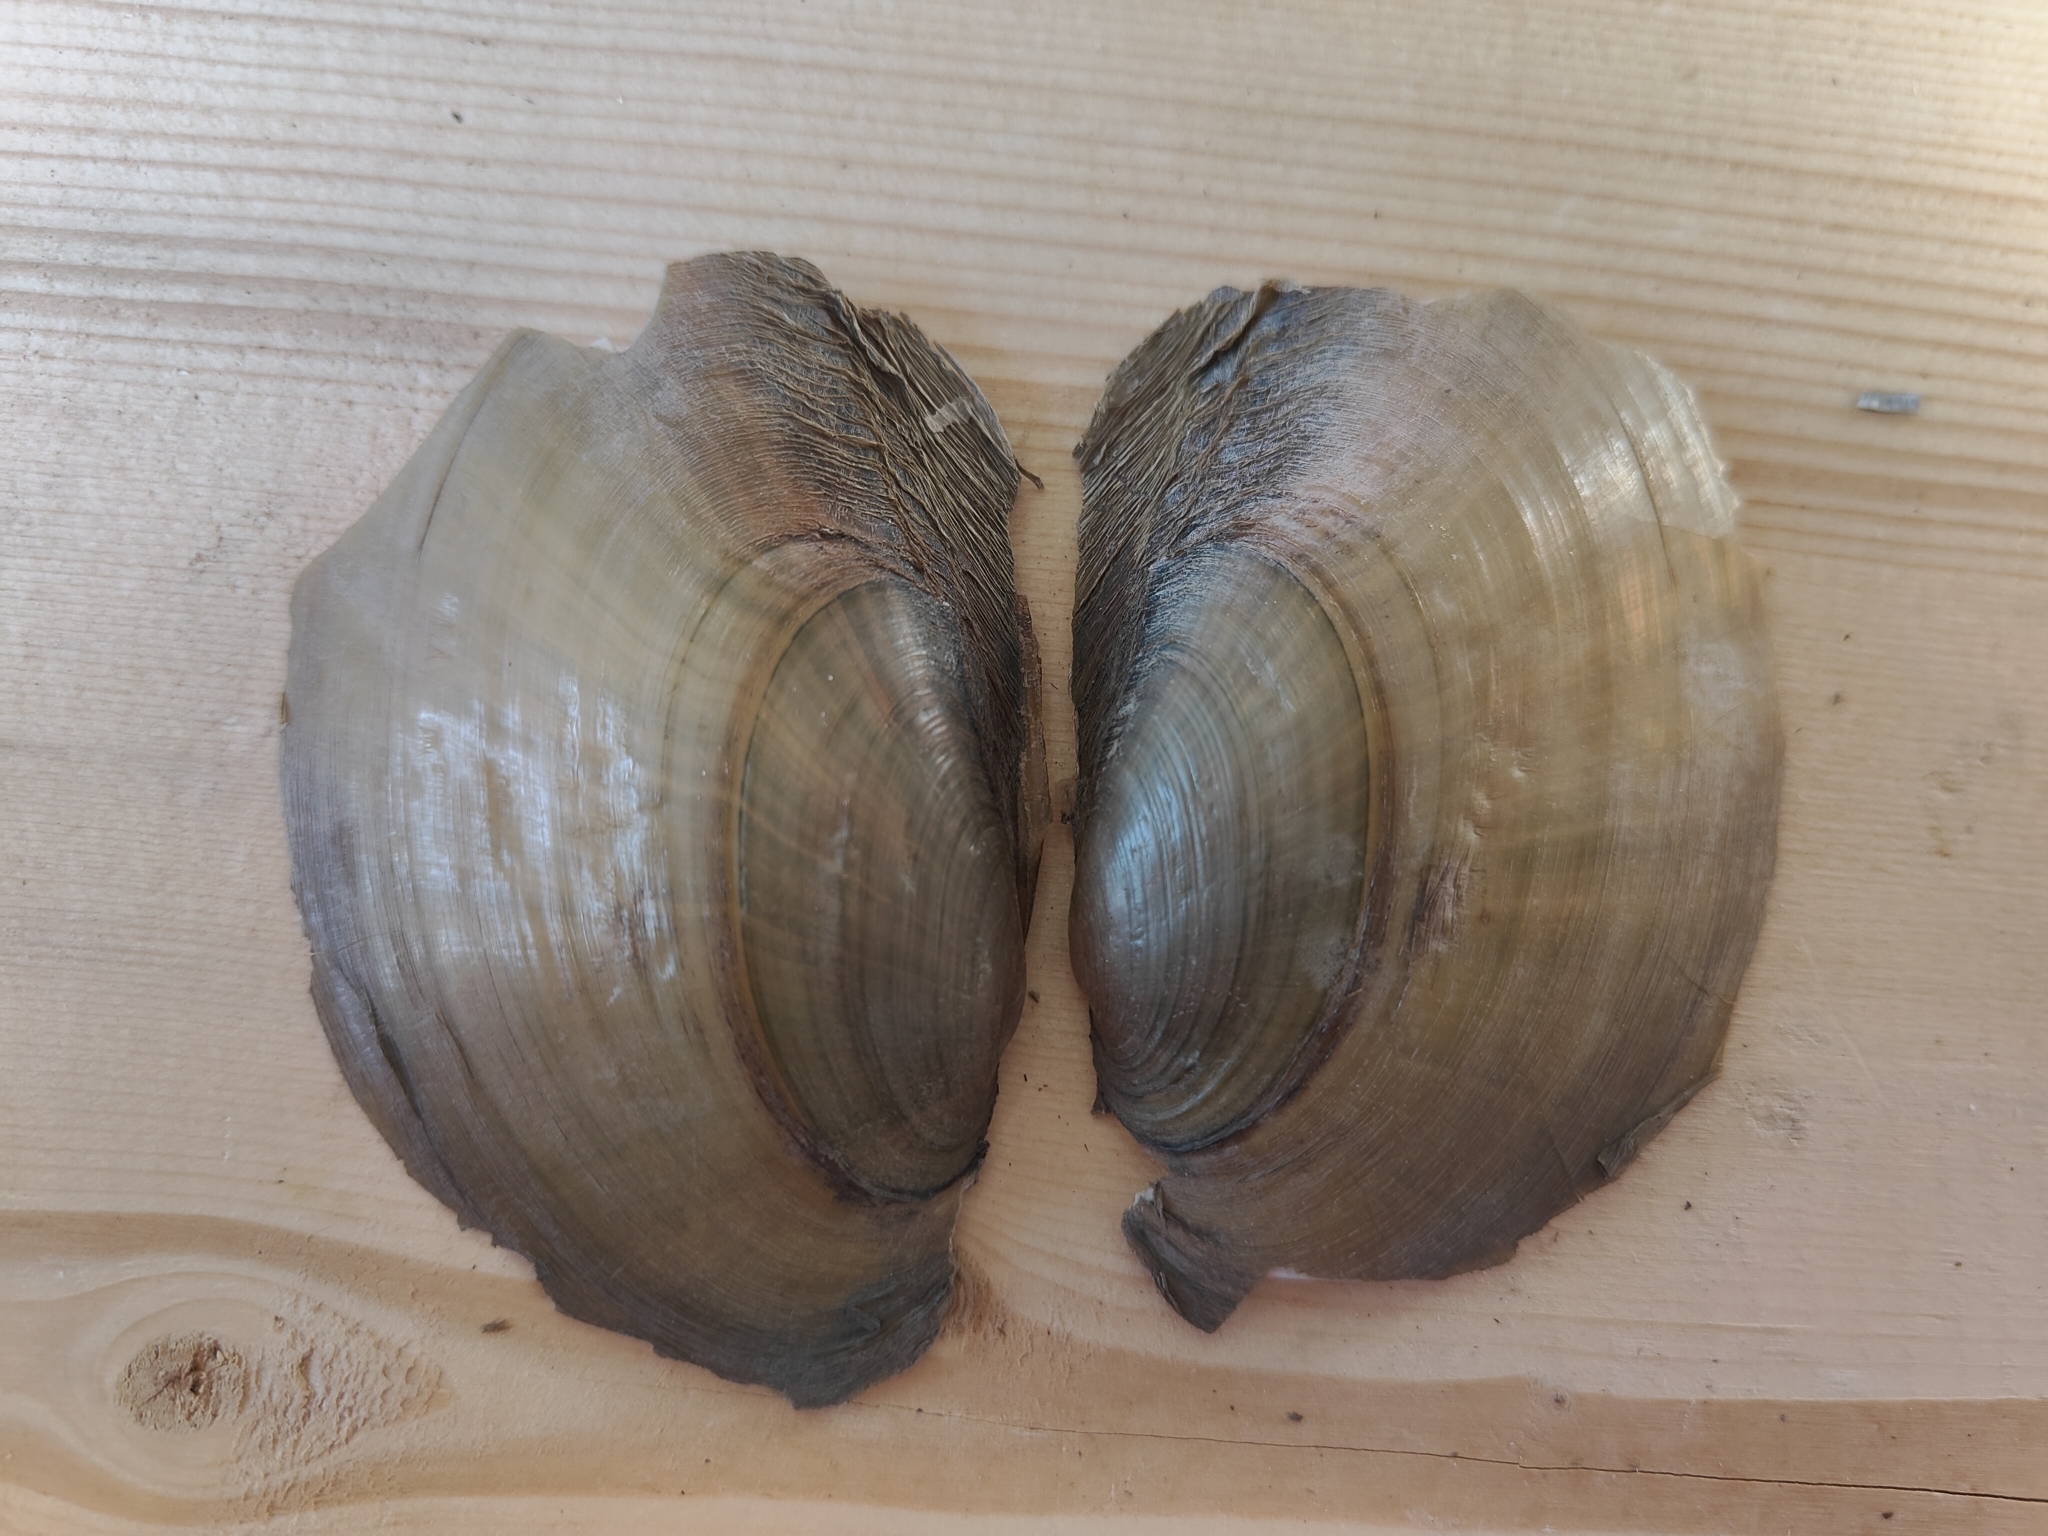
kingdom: Animalia
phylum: Mollusca
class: Bivalvia
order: Unionida
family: Unionidae
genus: Potamilus
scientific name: Potamilus fragilis
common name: Fragile papershell
